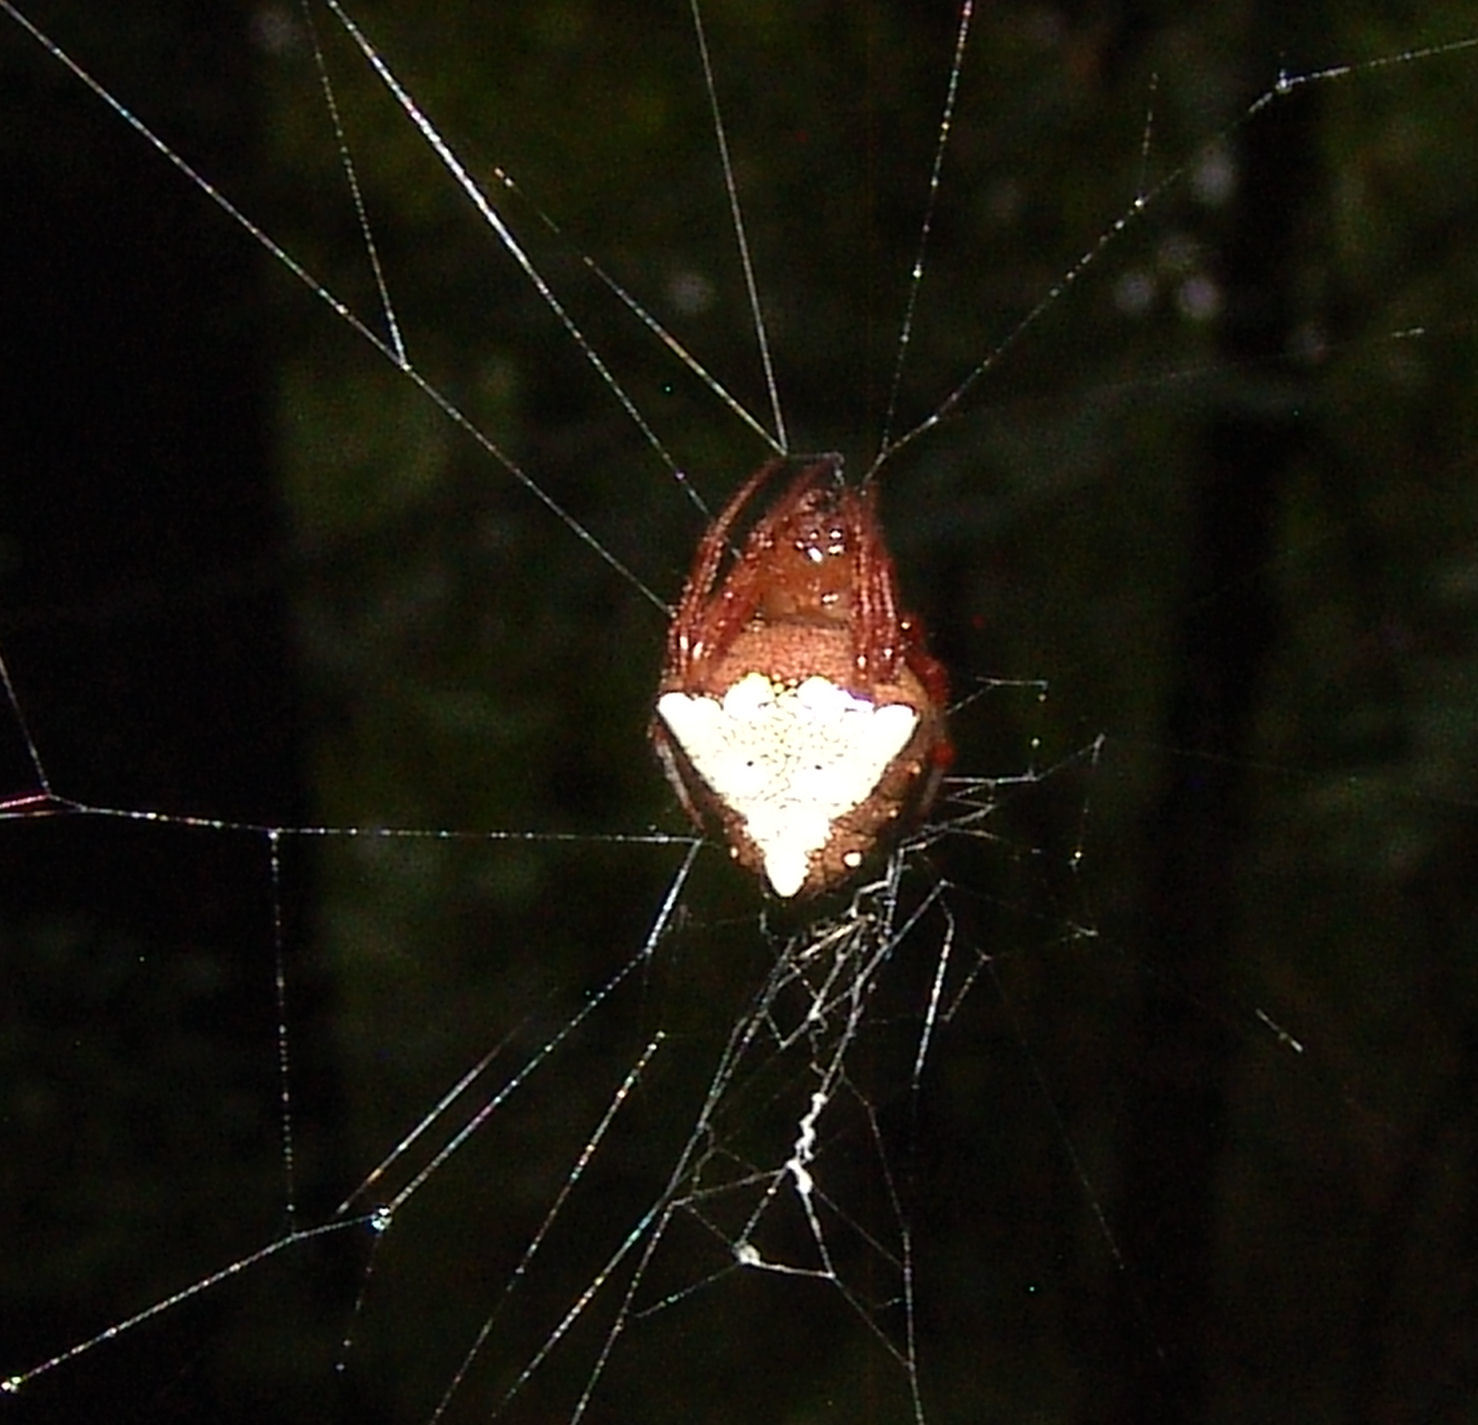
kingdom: Animalia
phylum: Arthropoda
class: Arachnida
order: Araneae
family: Araneidae
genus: Verrucosa
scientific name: Verrucosa arenata
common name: Orb weavers
